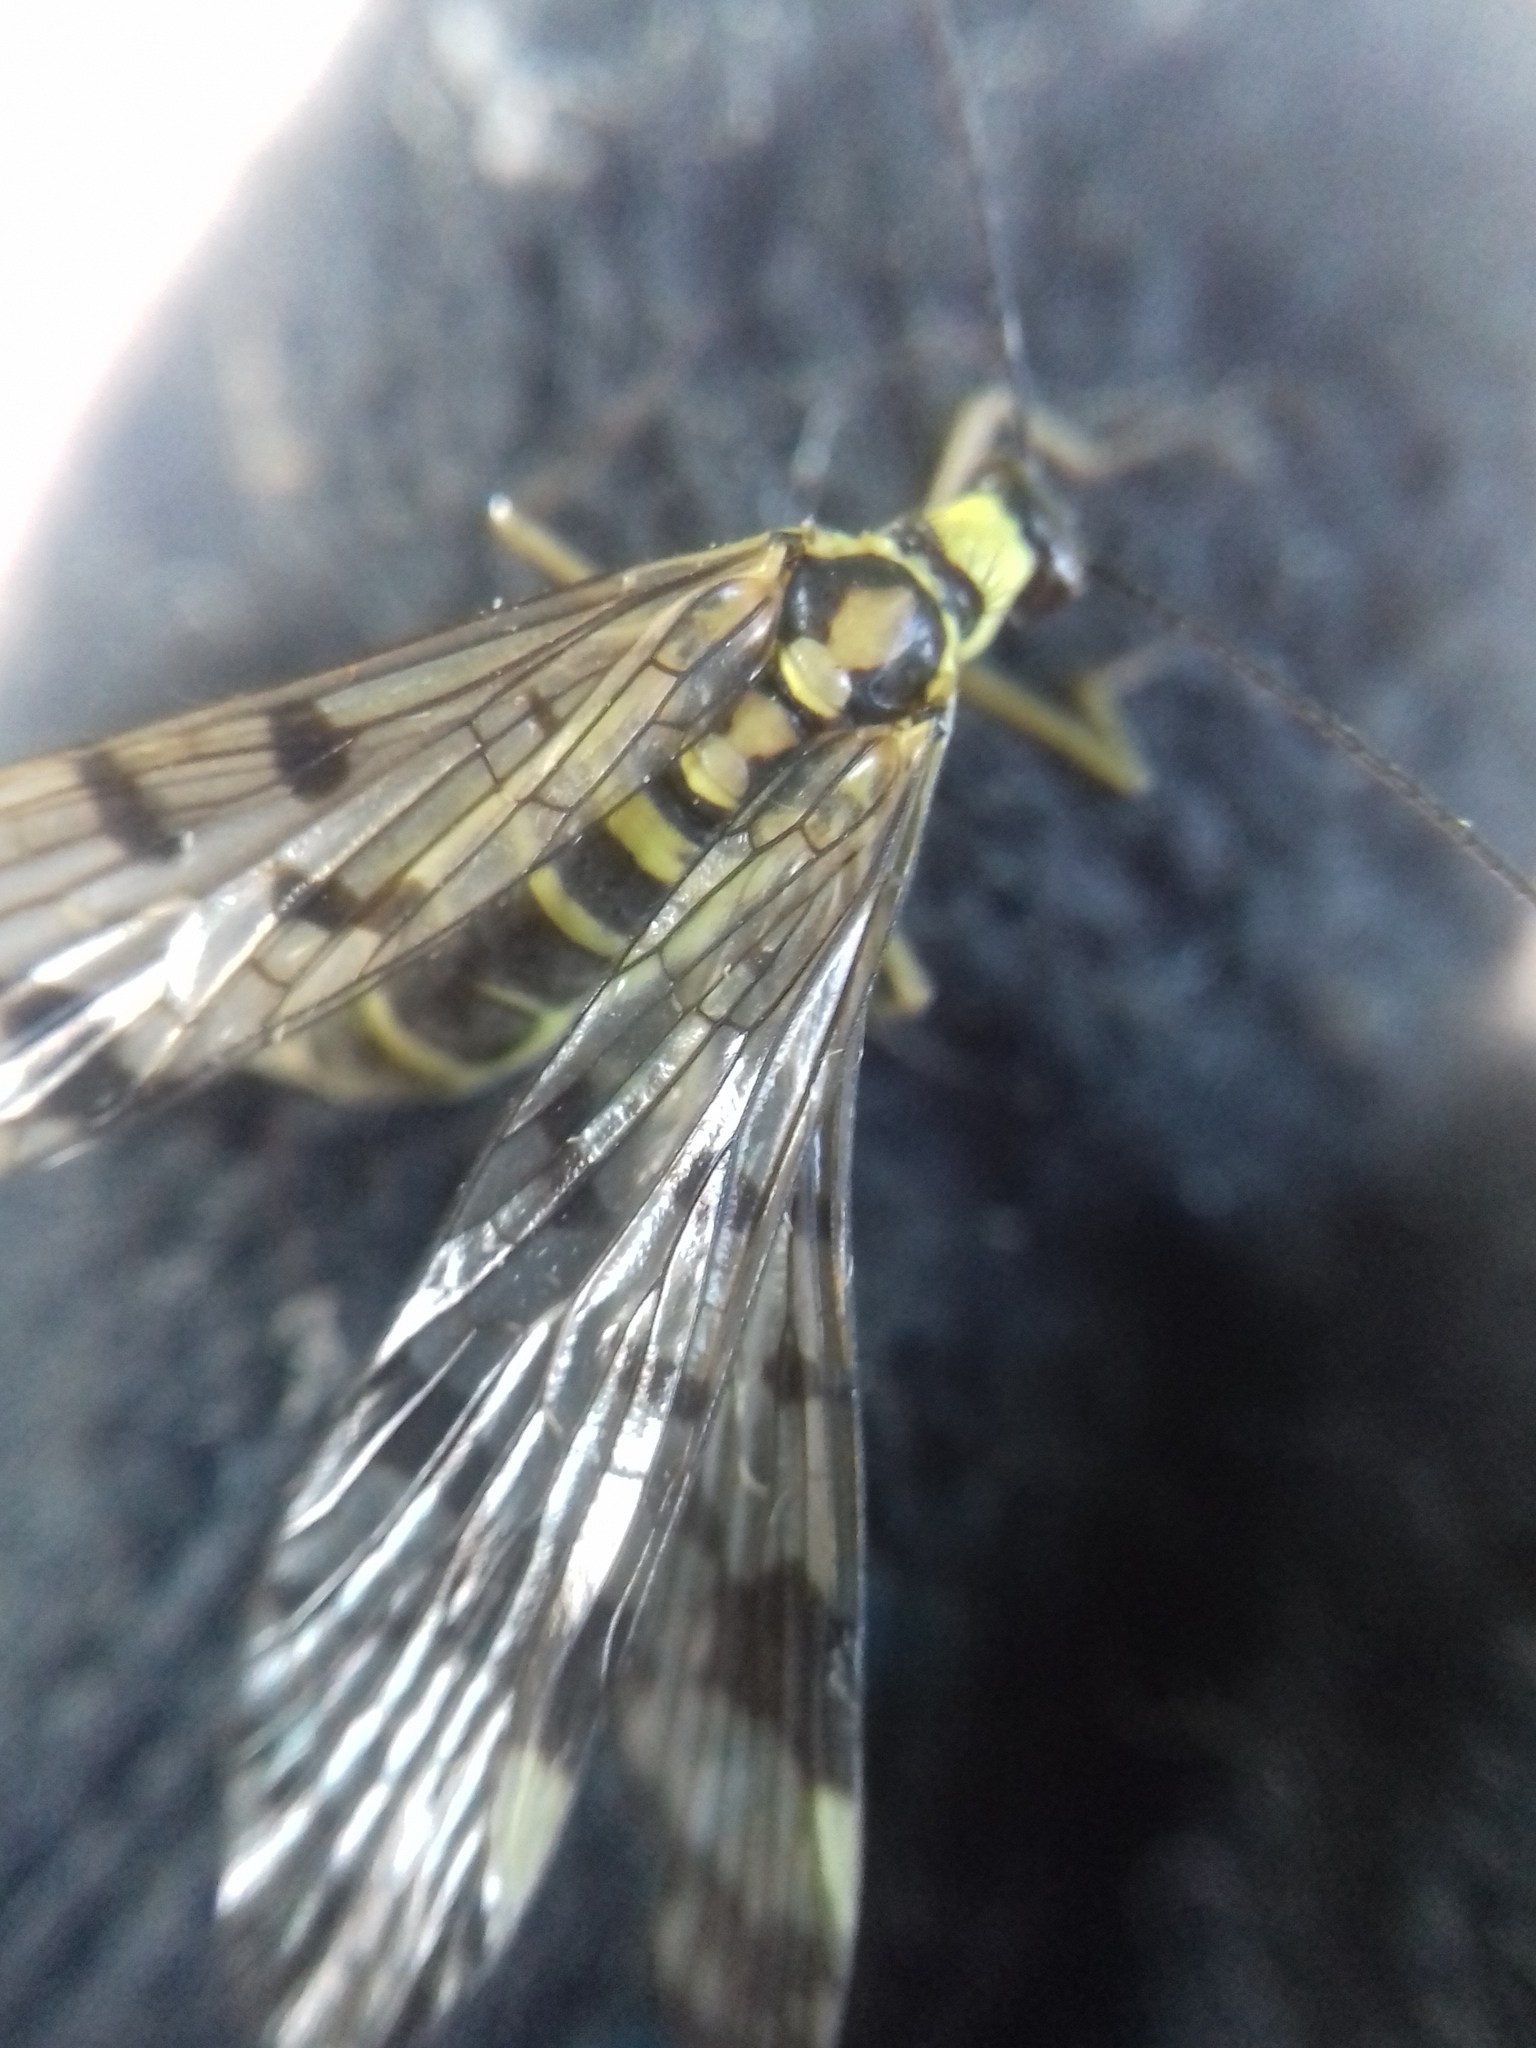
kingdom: Animalia
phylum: Arthropoda
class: Insecta
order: Mecoptera
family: Panorpidae
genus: Panorpa
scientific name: Panorpa communis
